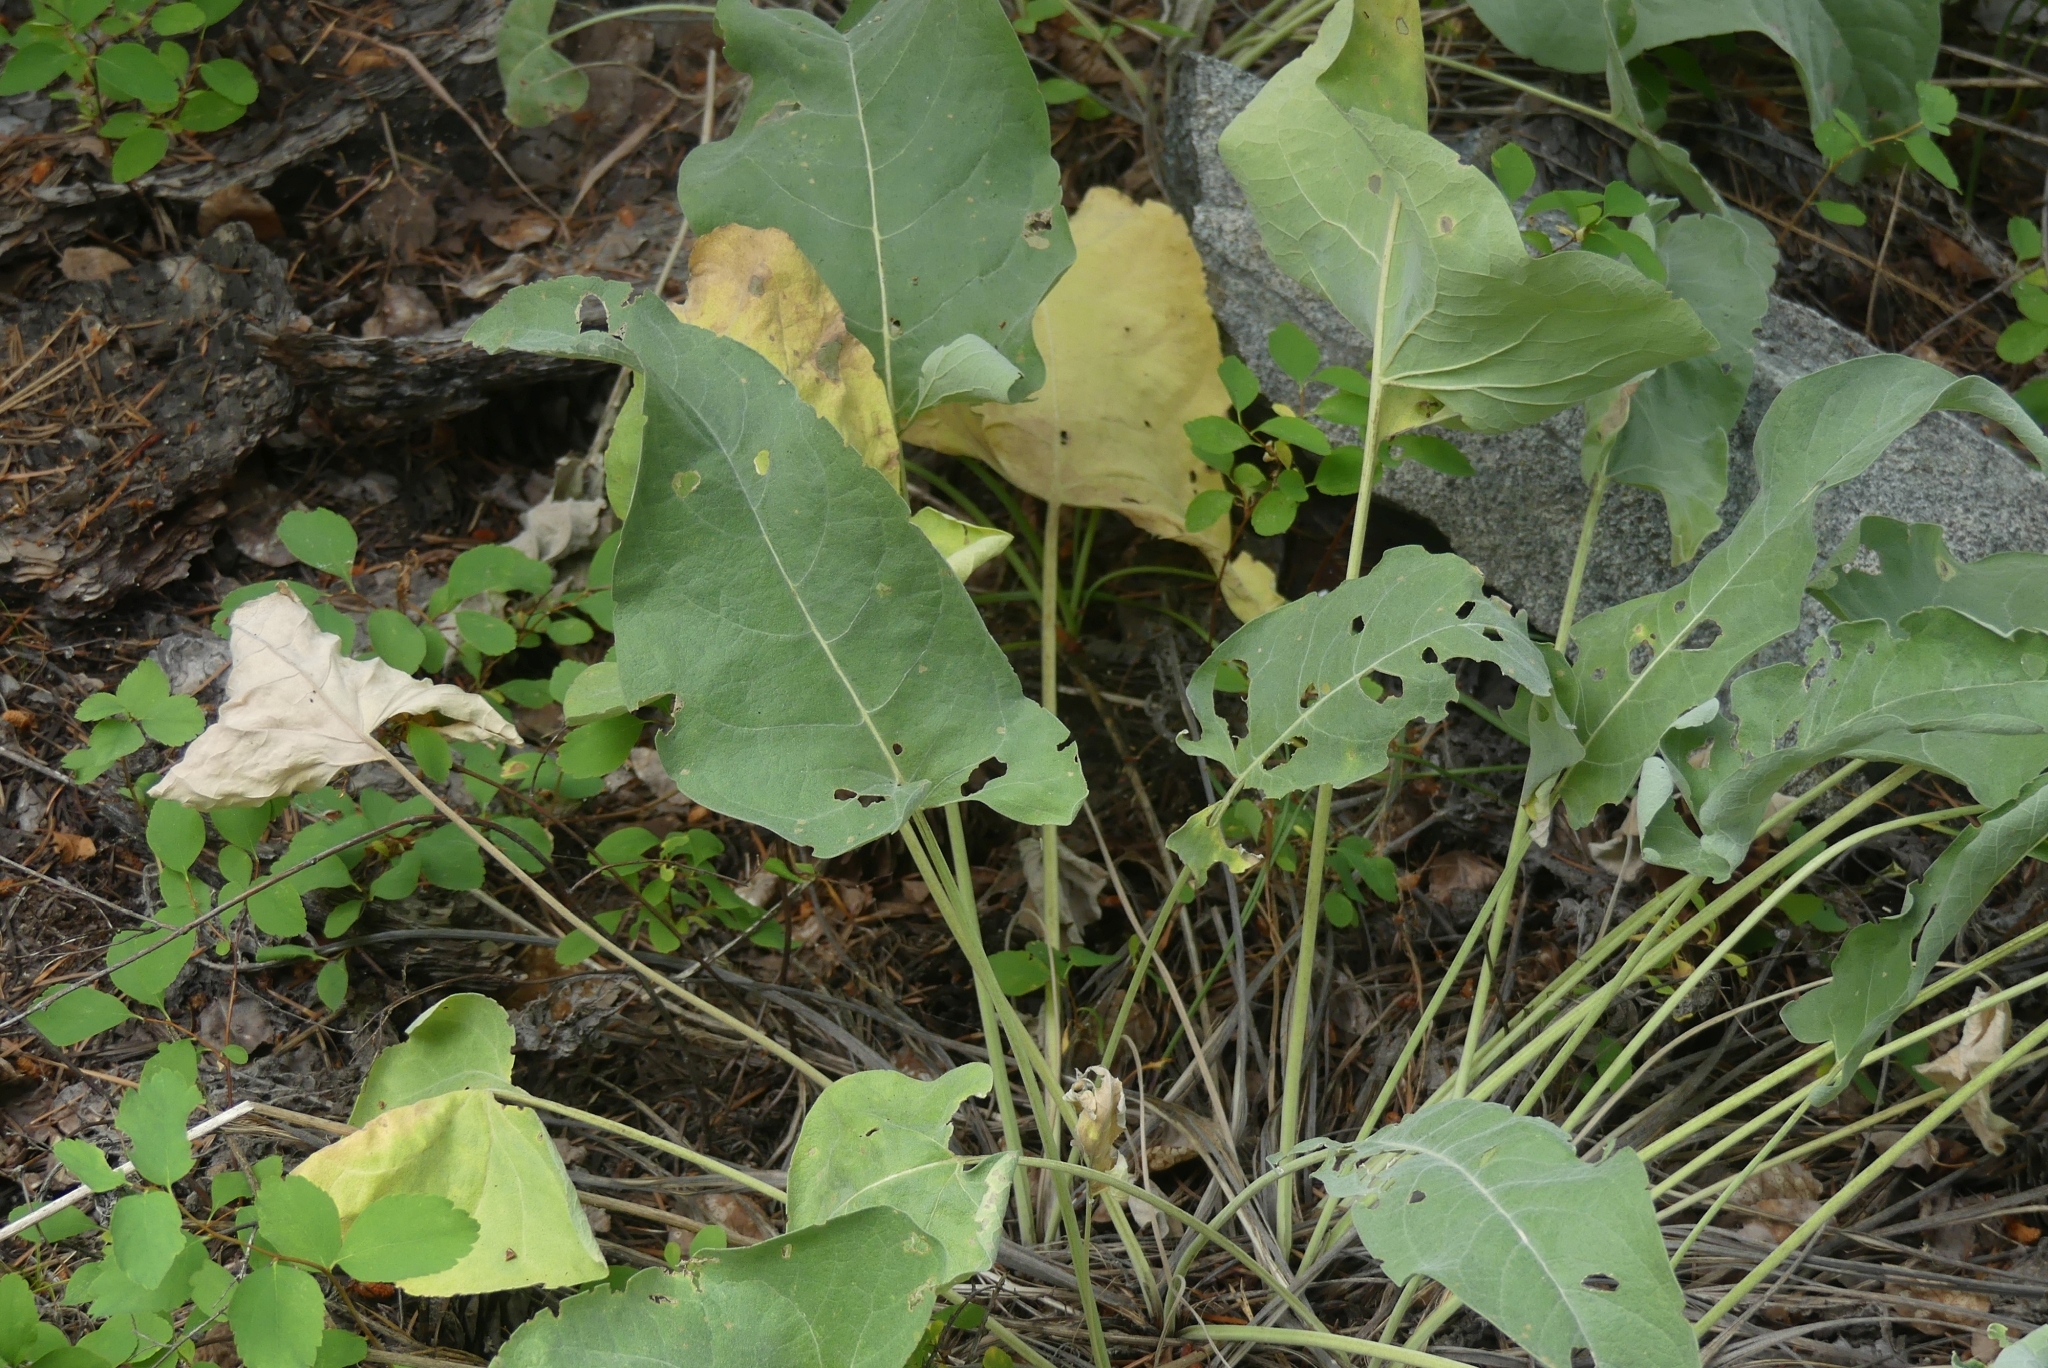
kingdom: Plantae
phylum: Tracheophyta
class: Magnoliopsida
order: Asterales
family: Asteraceae
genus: Wyethia
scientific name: Wyethia sagittata
